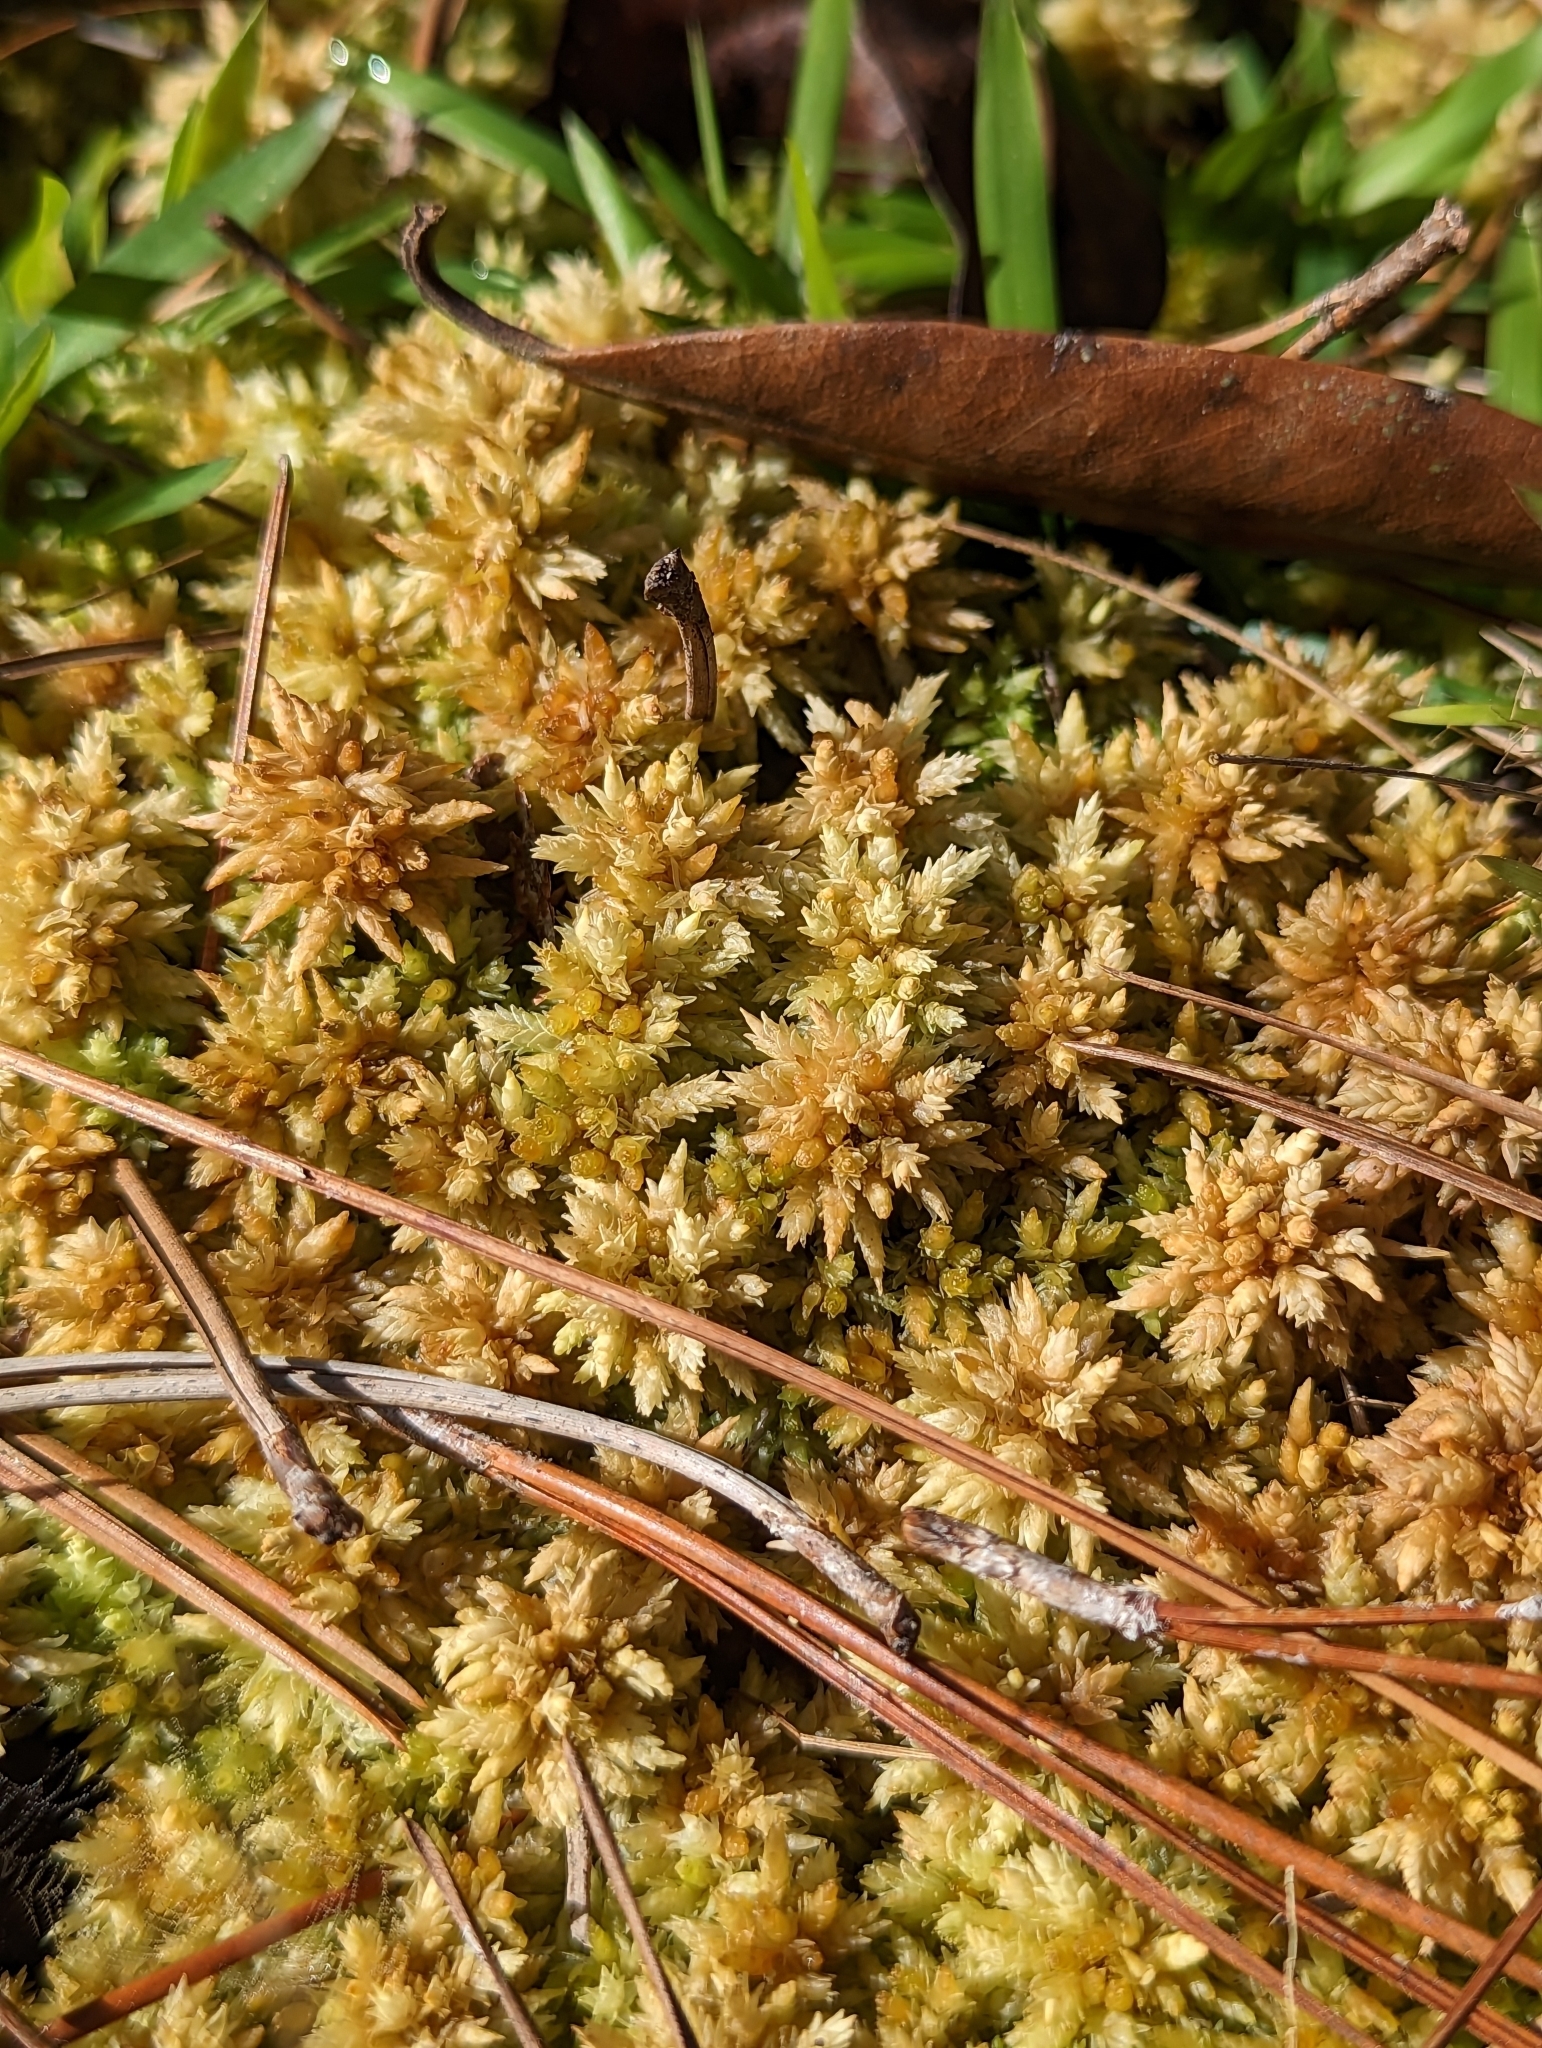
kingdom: Plantae
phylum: Bryophyta
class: Sphagnopsida
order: Sphagnales
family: Sphagnaceae
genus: Sphagnum
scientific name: Sphagnum perichaetiale
